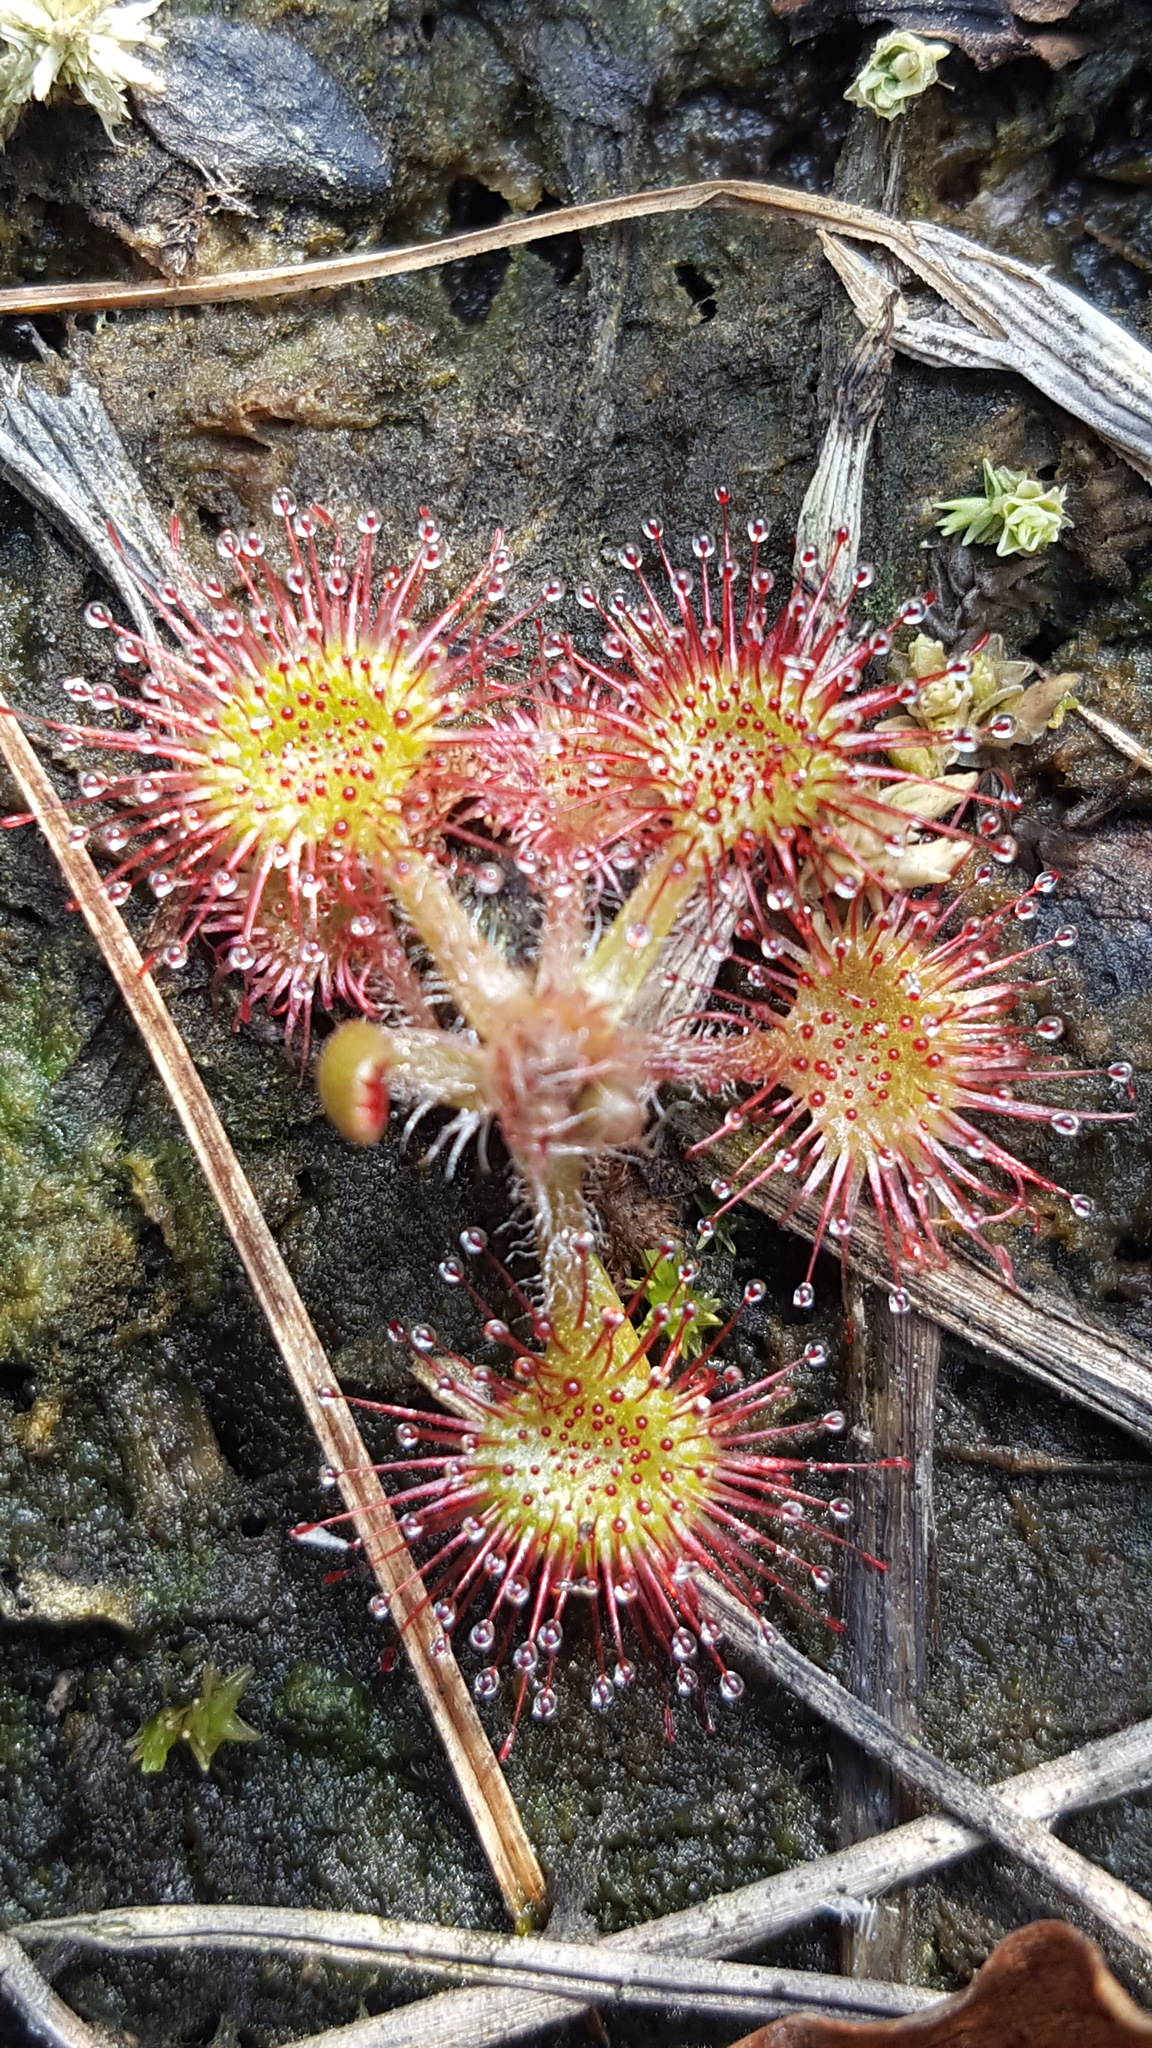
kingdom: Plantae
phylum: Tracheophyta
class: Magnoliopsida
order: Caryophyllales
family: Droseraceae
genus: Drosera
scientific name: Drosera rotundifolia
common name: Round-leaved sundew
